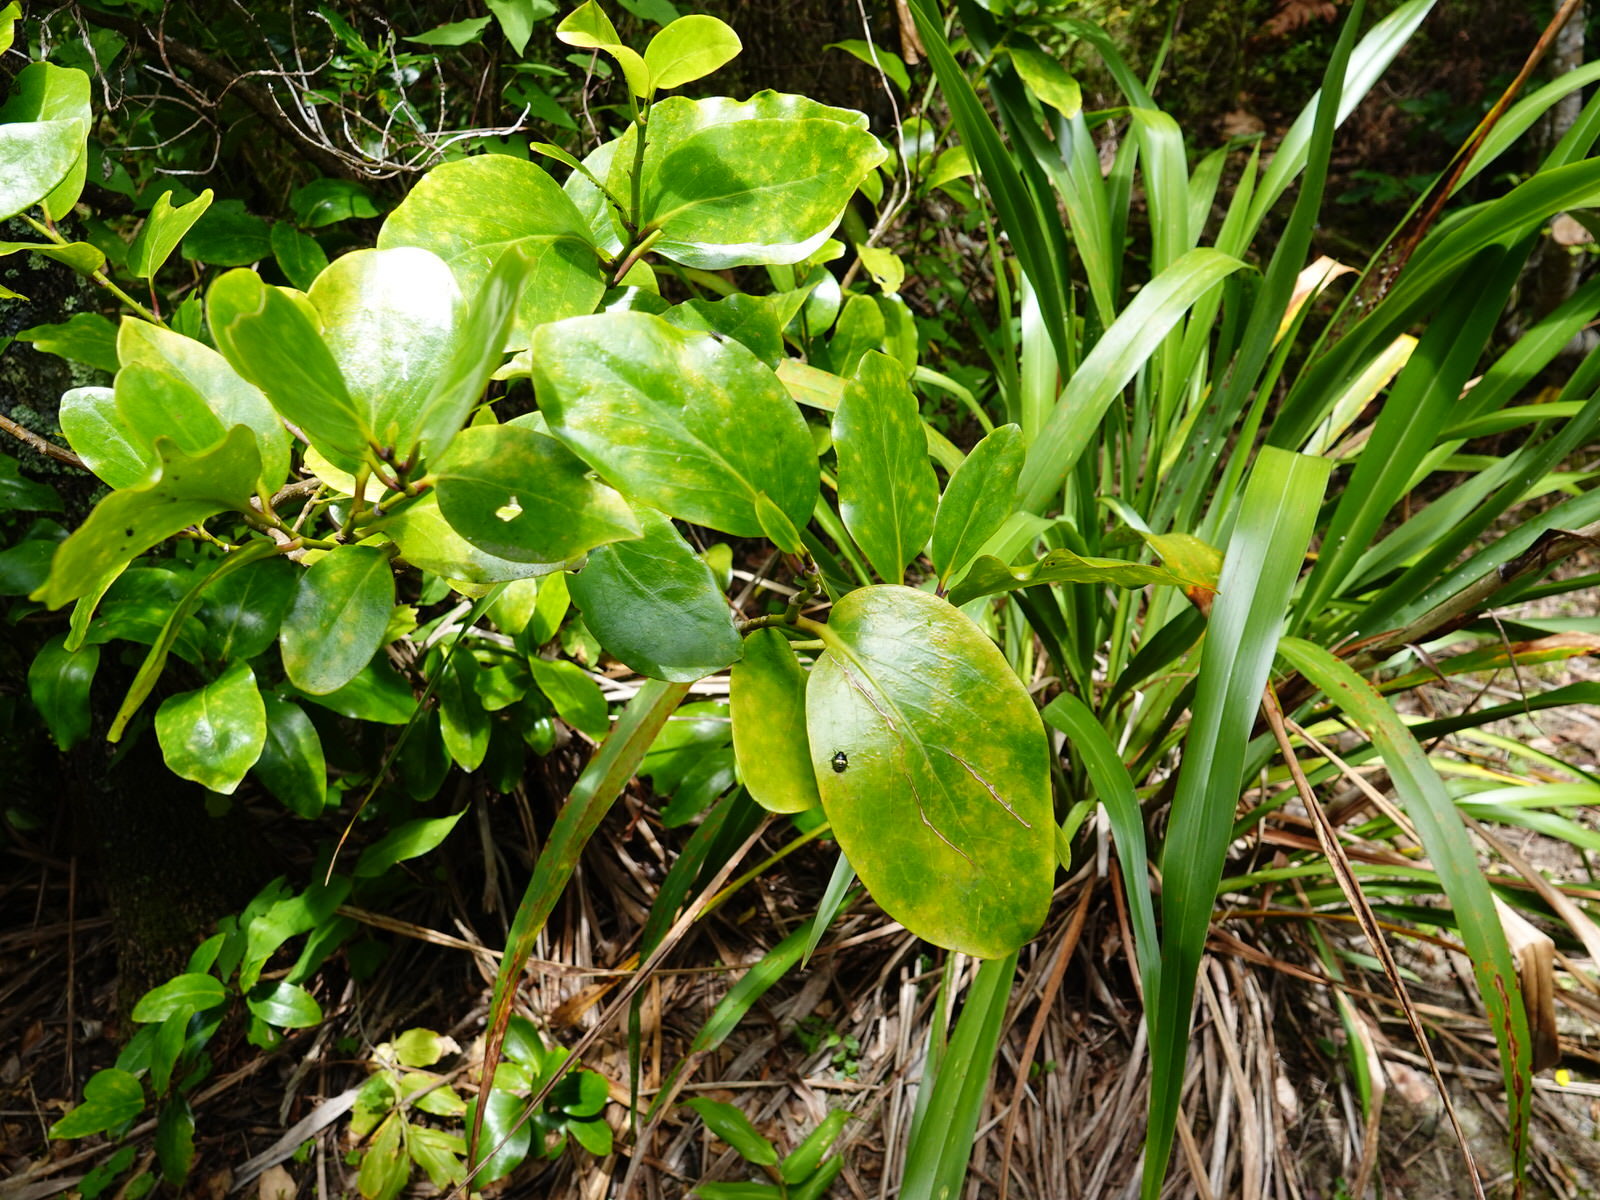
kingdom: Animalia
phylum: Arthropoda
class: Insecta
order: Hemiptera
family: Pentatomidae
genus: Glaucias
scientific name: Glaucias amyota
